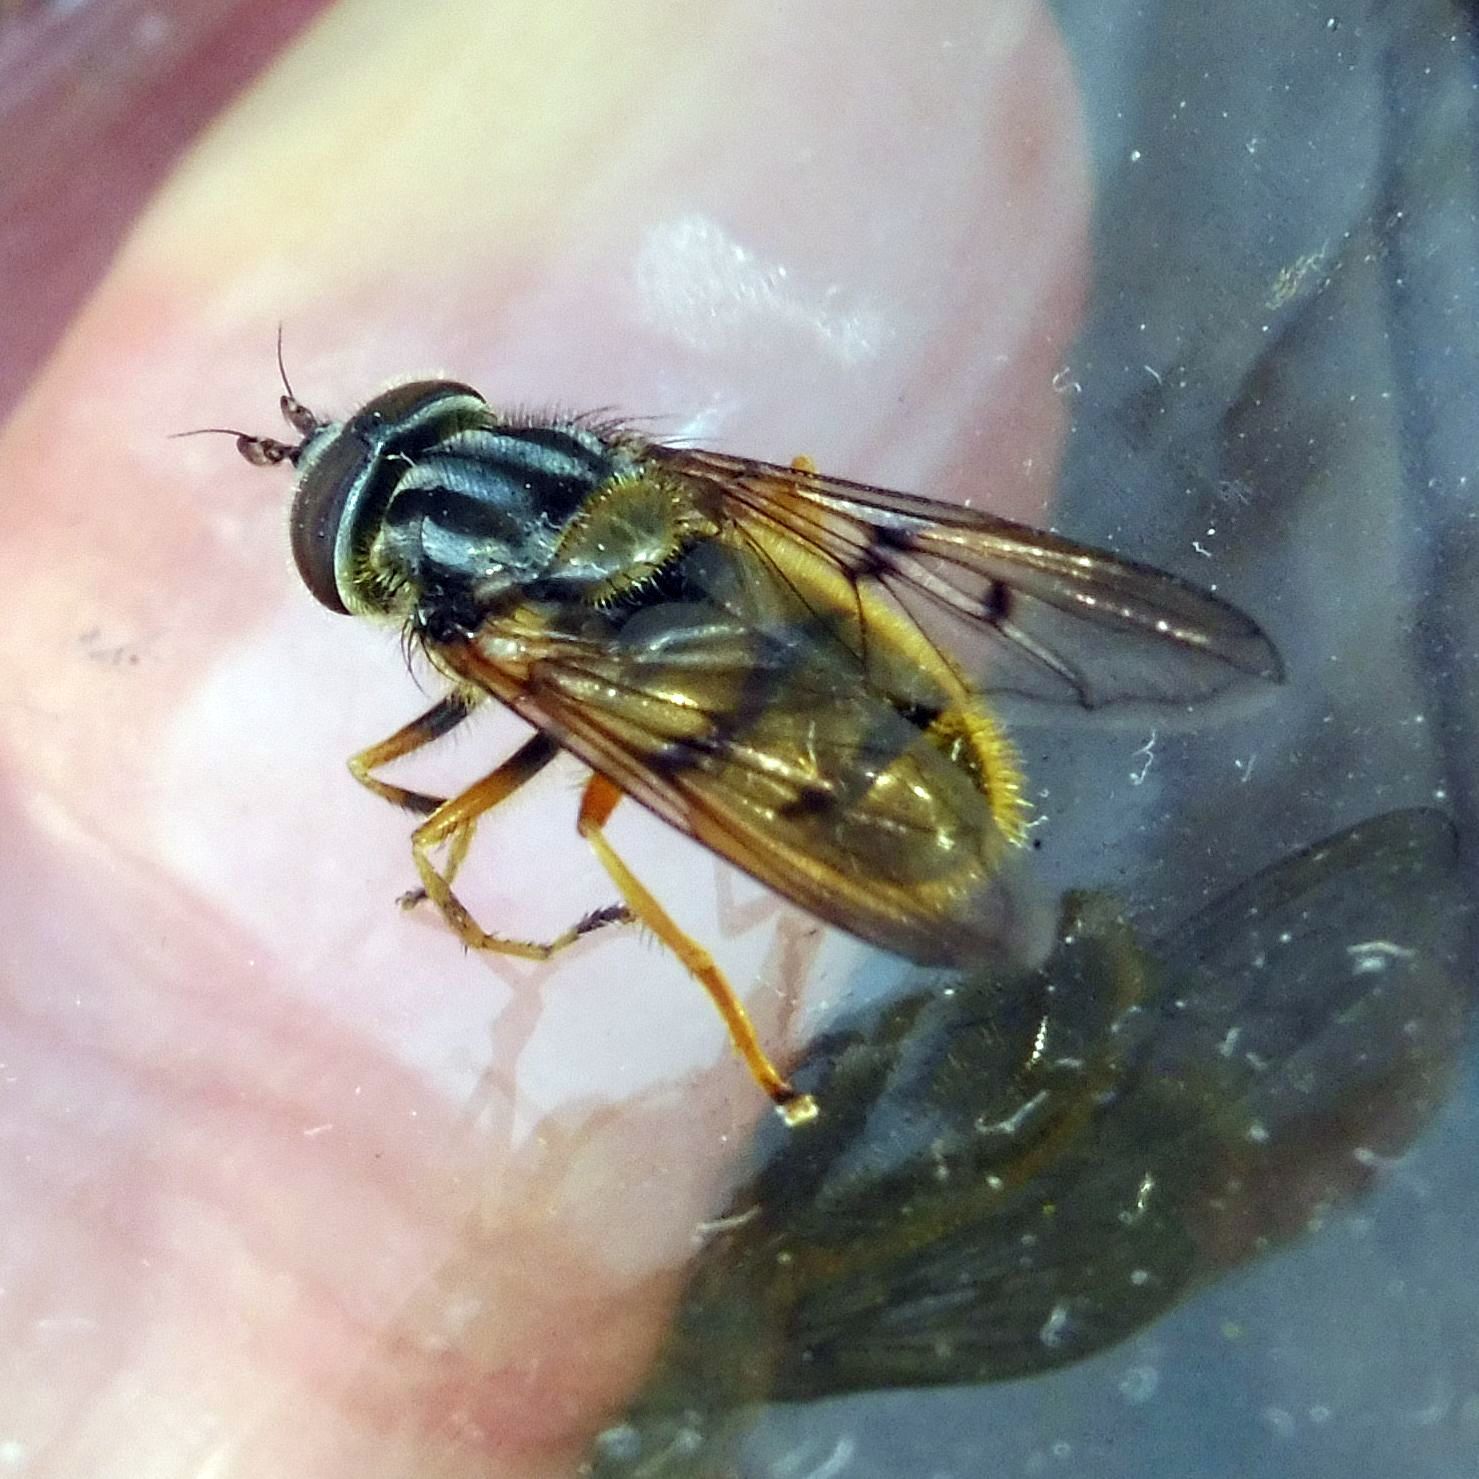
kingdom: Animalia
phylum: Arthropoda
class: Insecta
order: Diptera
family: Syrphidae
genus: Ferdinandea
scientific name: Ferdinandea cuprea
